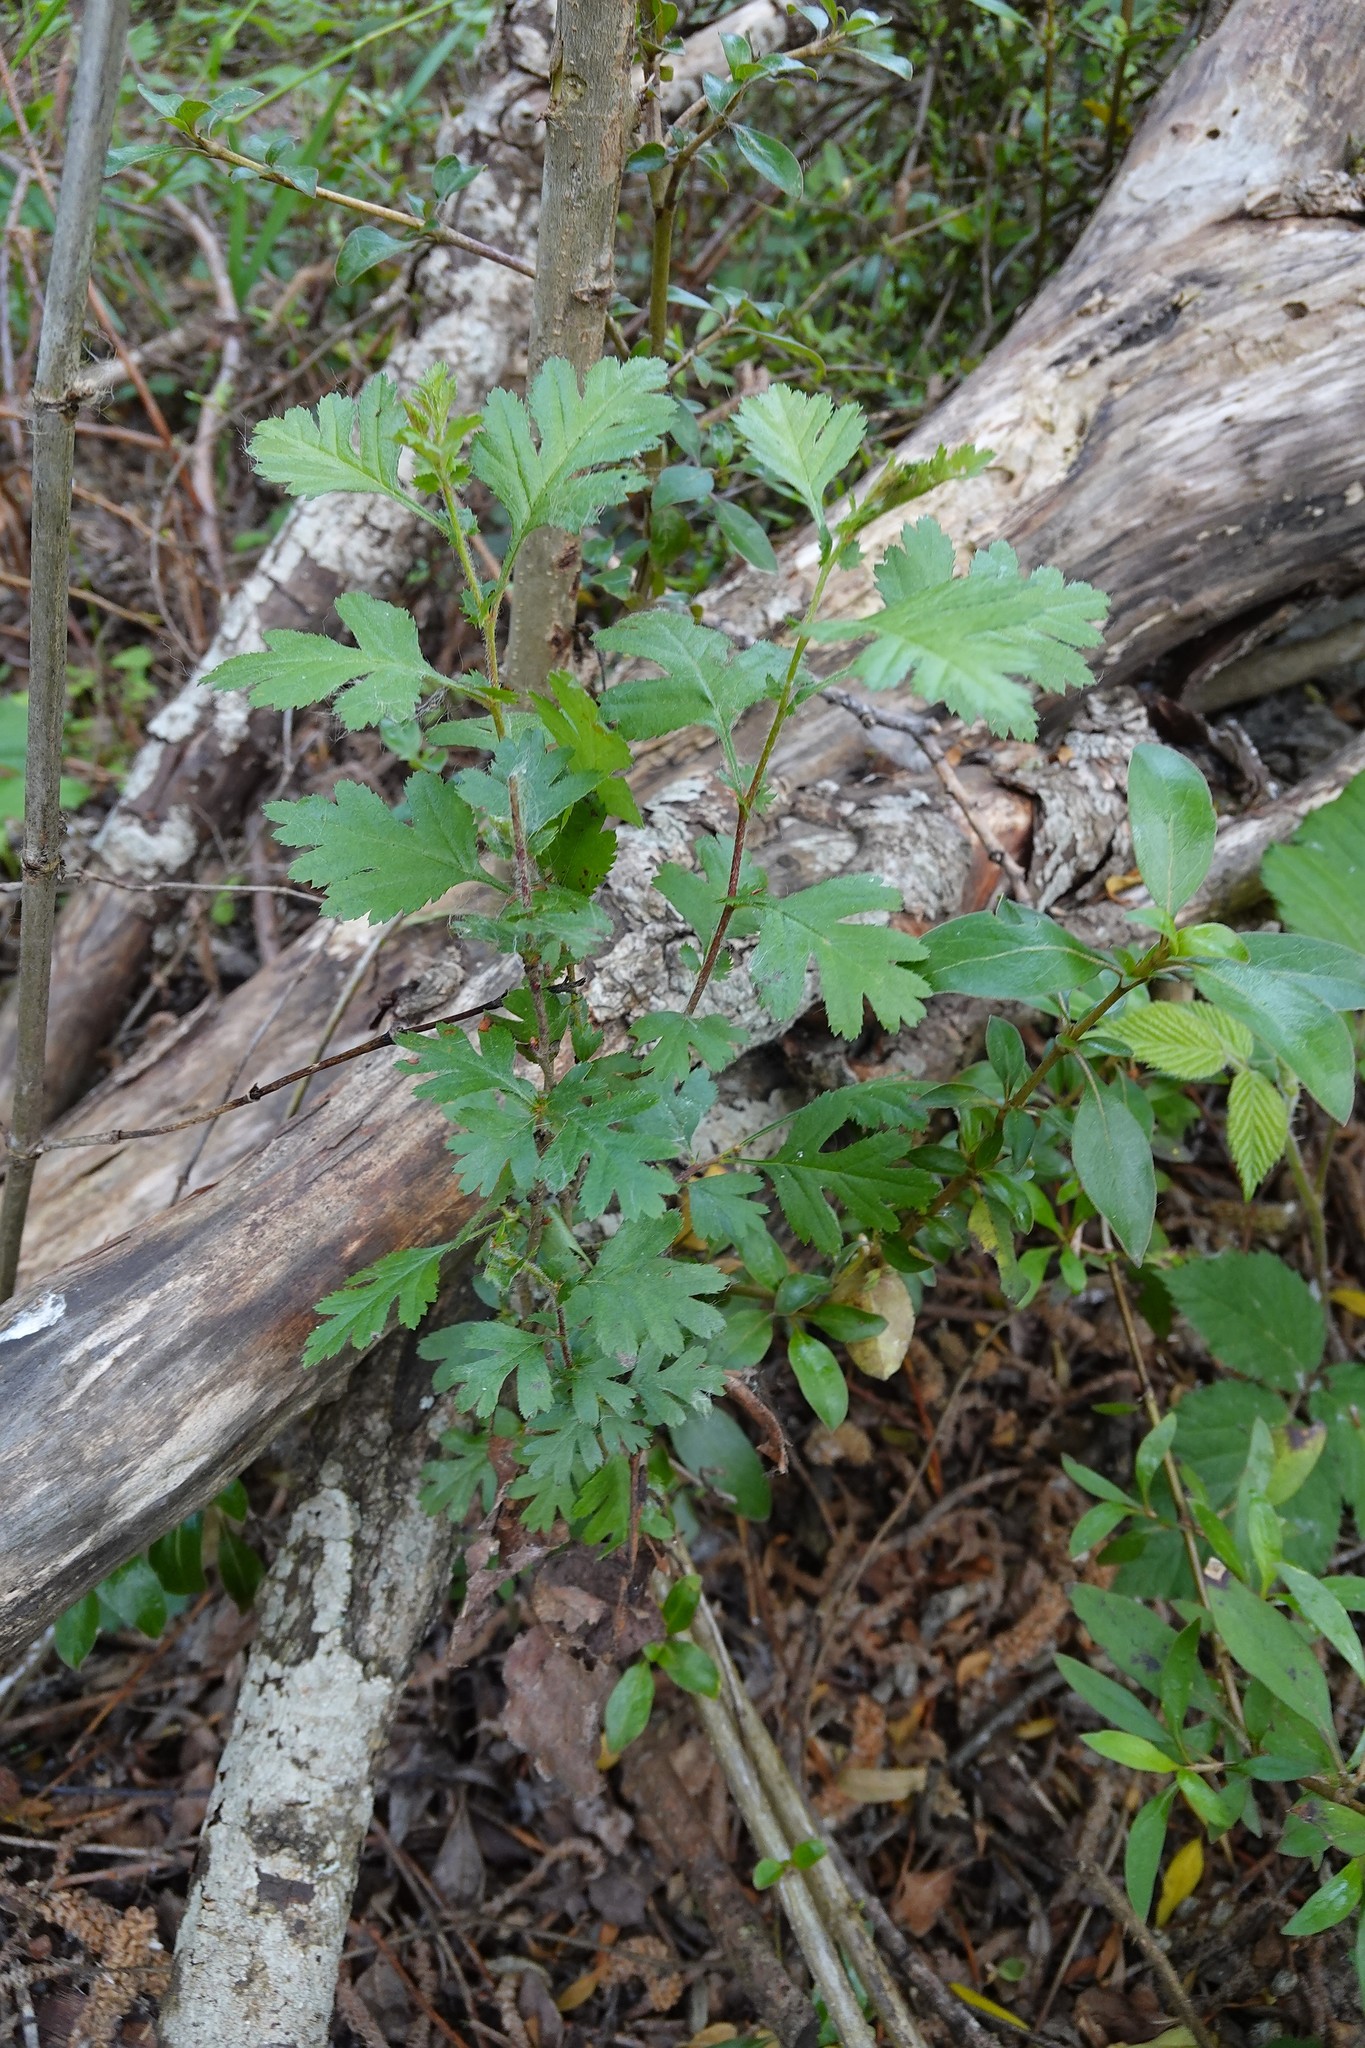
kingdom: Plantae
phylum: Tracheophyta
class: Magnoliopsida
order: Rosales
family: Rosaceae
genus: Crataegus
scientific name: Crataegus monogyna
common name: Hawthorn
